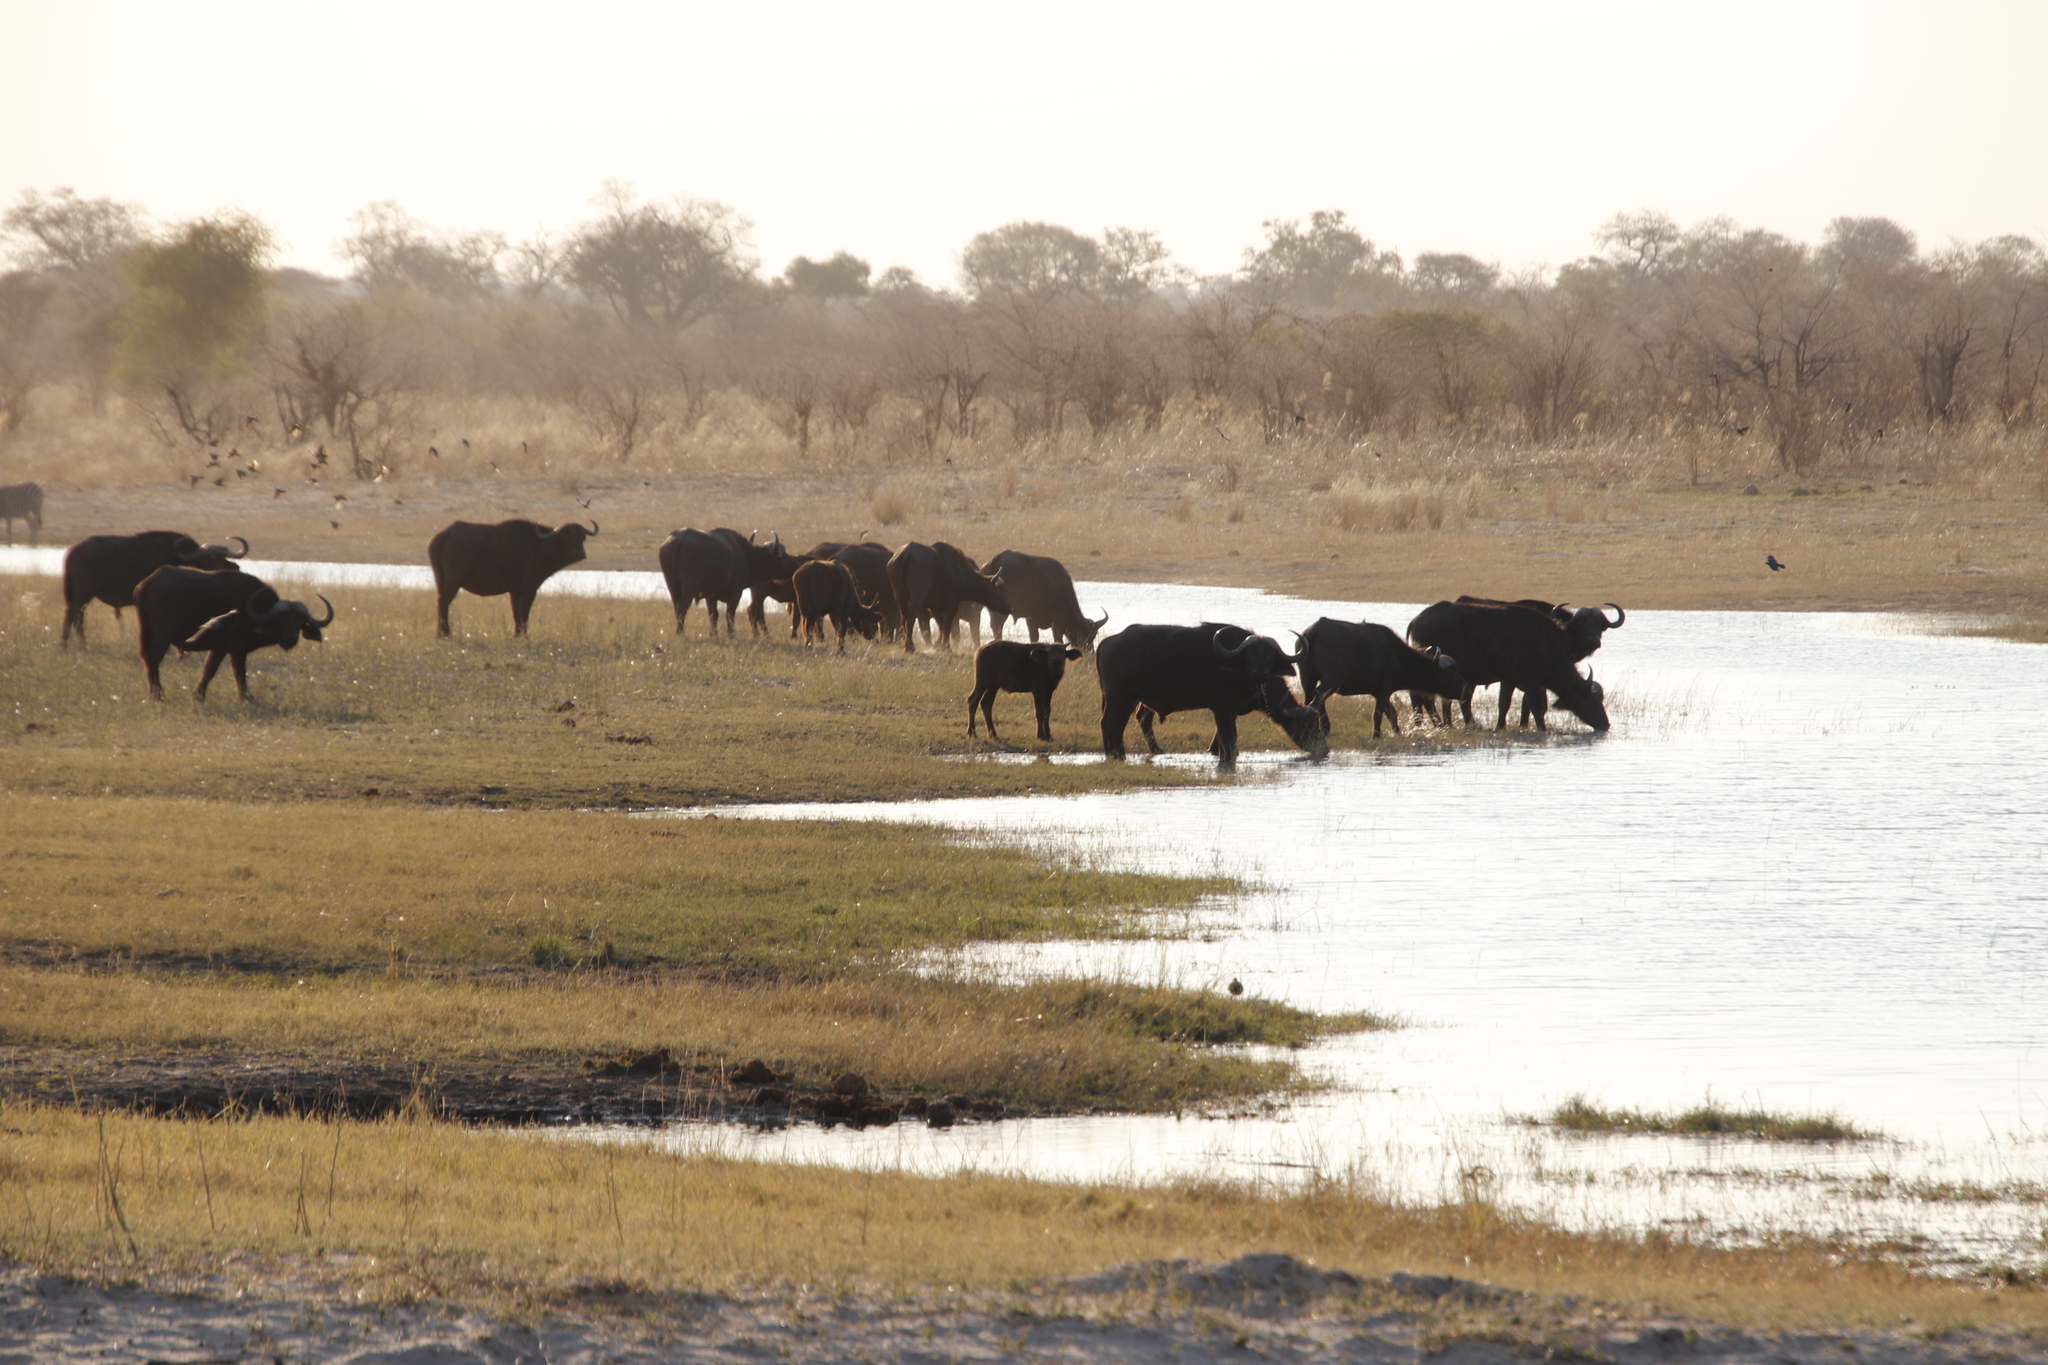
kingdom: Animalia
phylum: Chordata
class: Mammalia
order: Artiodactyla
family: Bovidae
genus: Syncerus
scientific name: Syncerus caffer
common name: African buffalo
